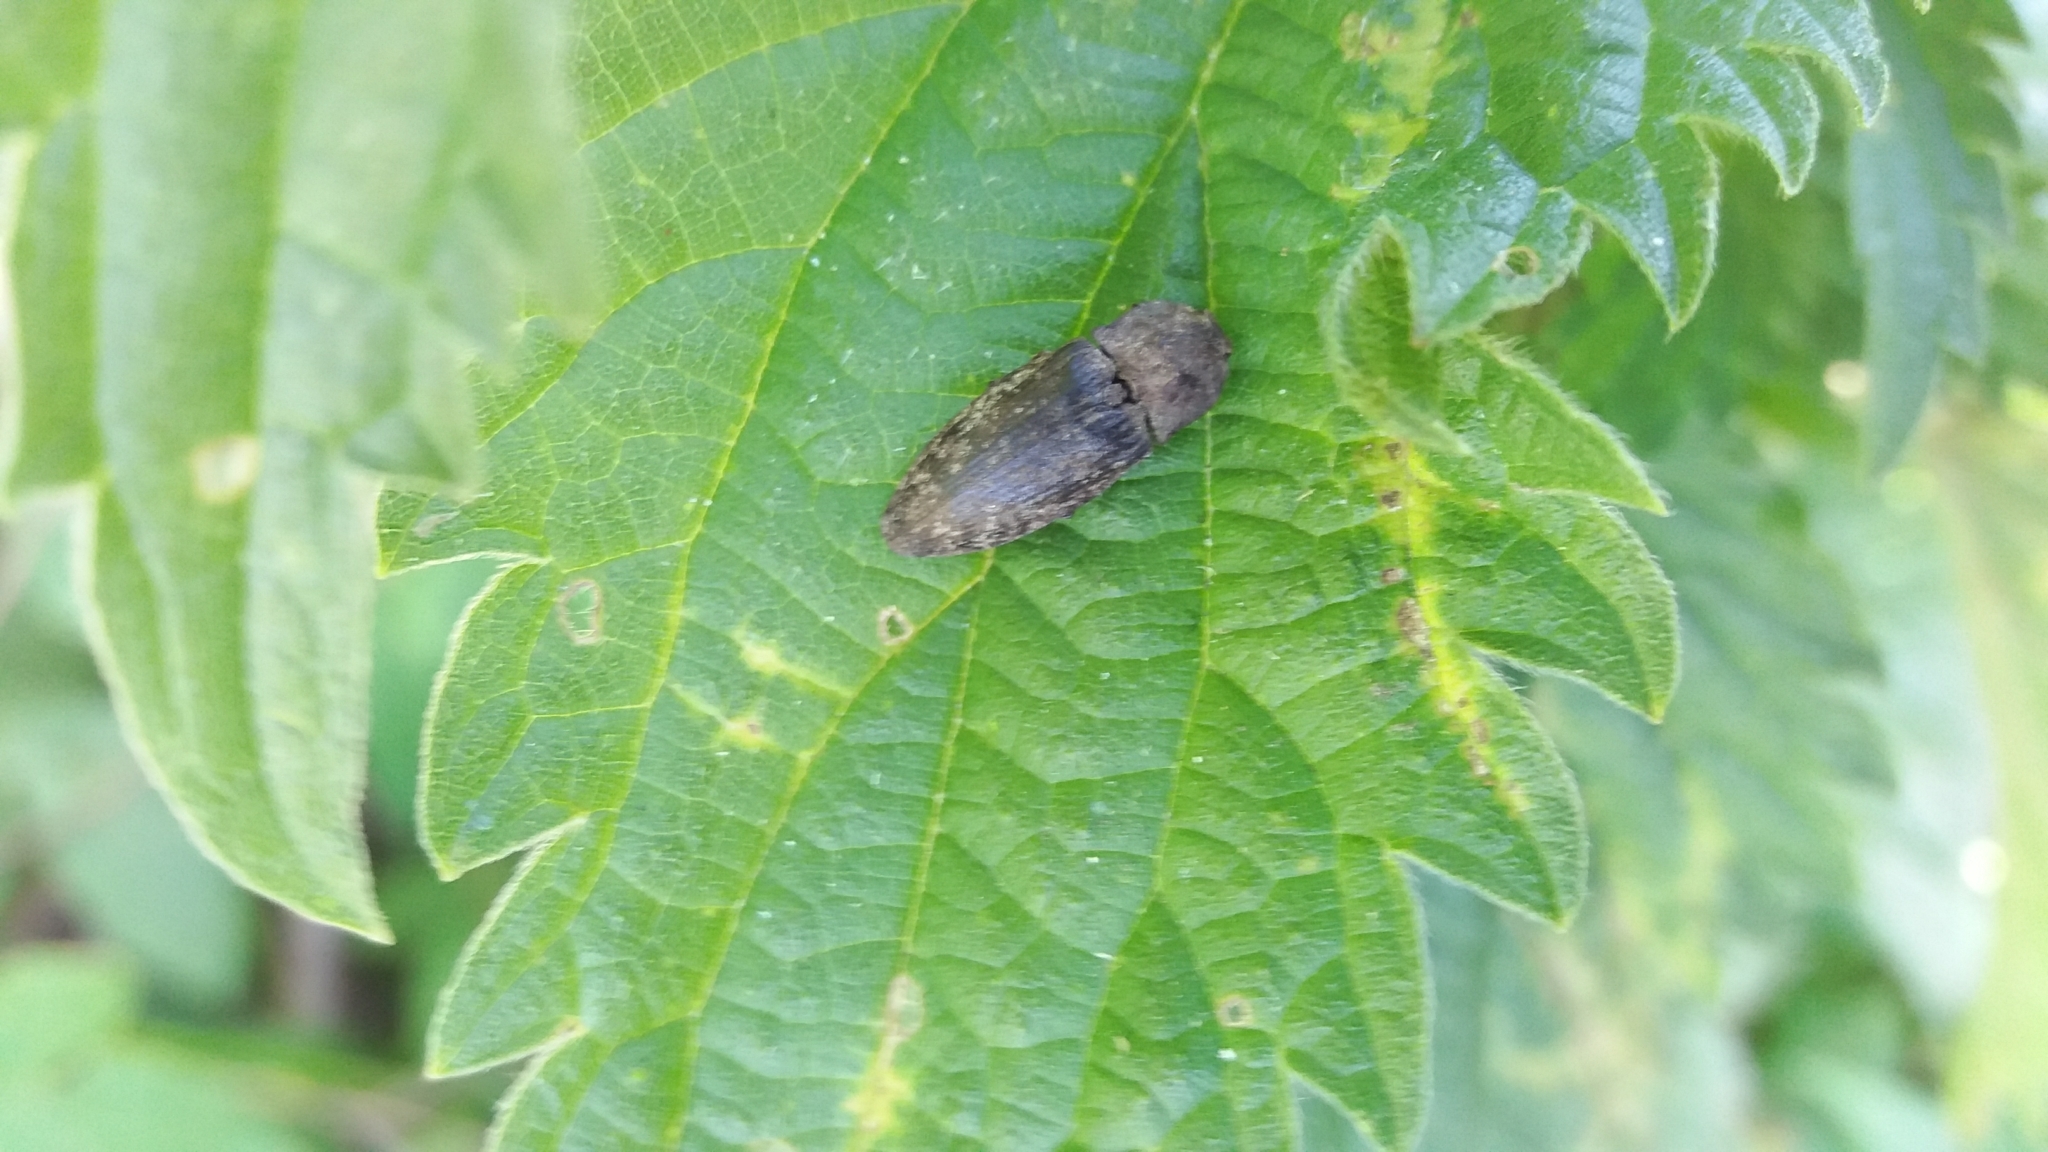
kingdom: Animalia
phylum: Arthropoda
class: Insecta
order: Coleoptera
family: Elateridae
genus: Agrypnus
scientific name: Agrypnus murinus
